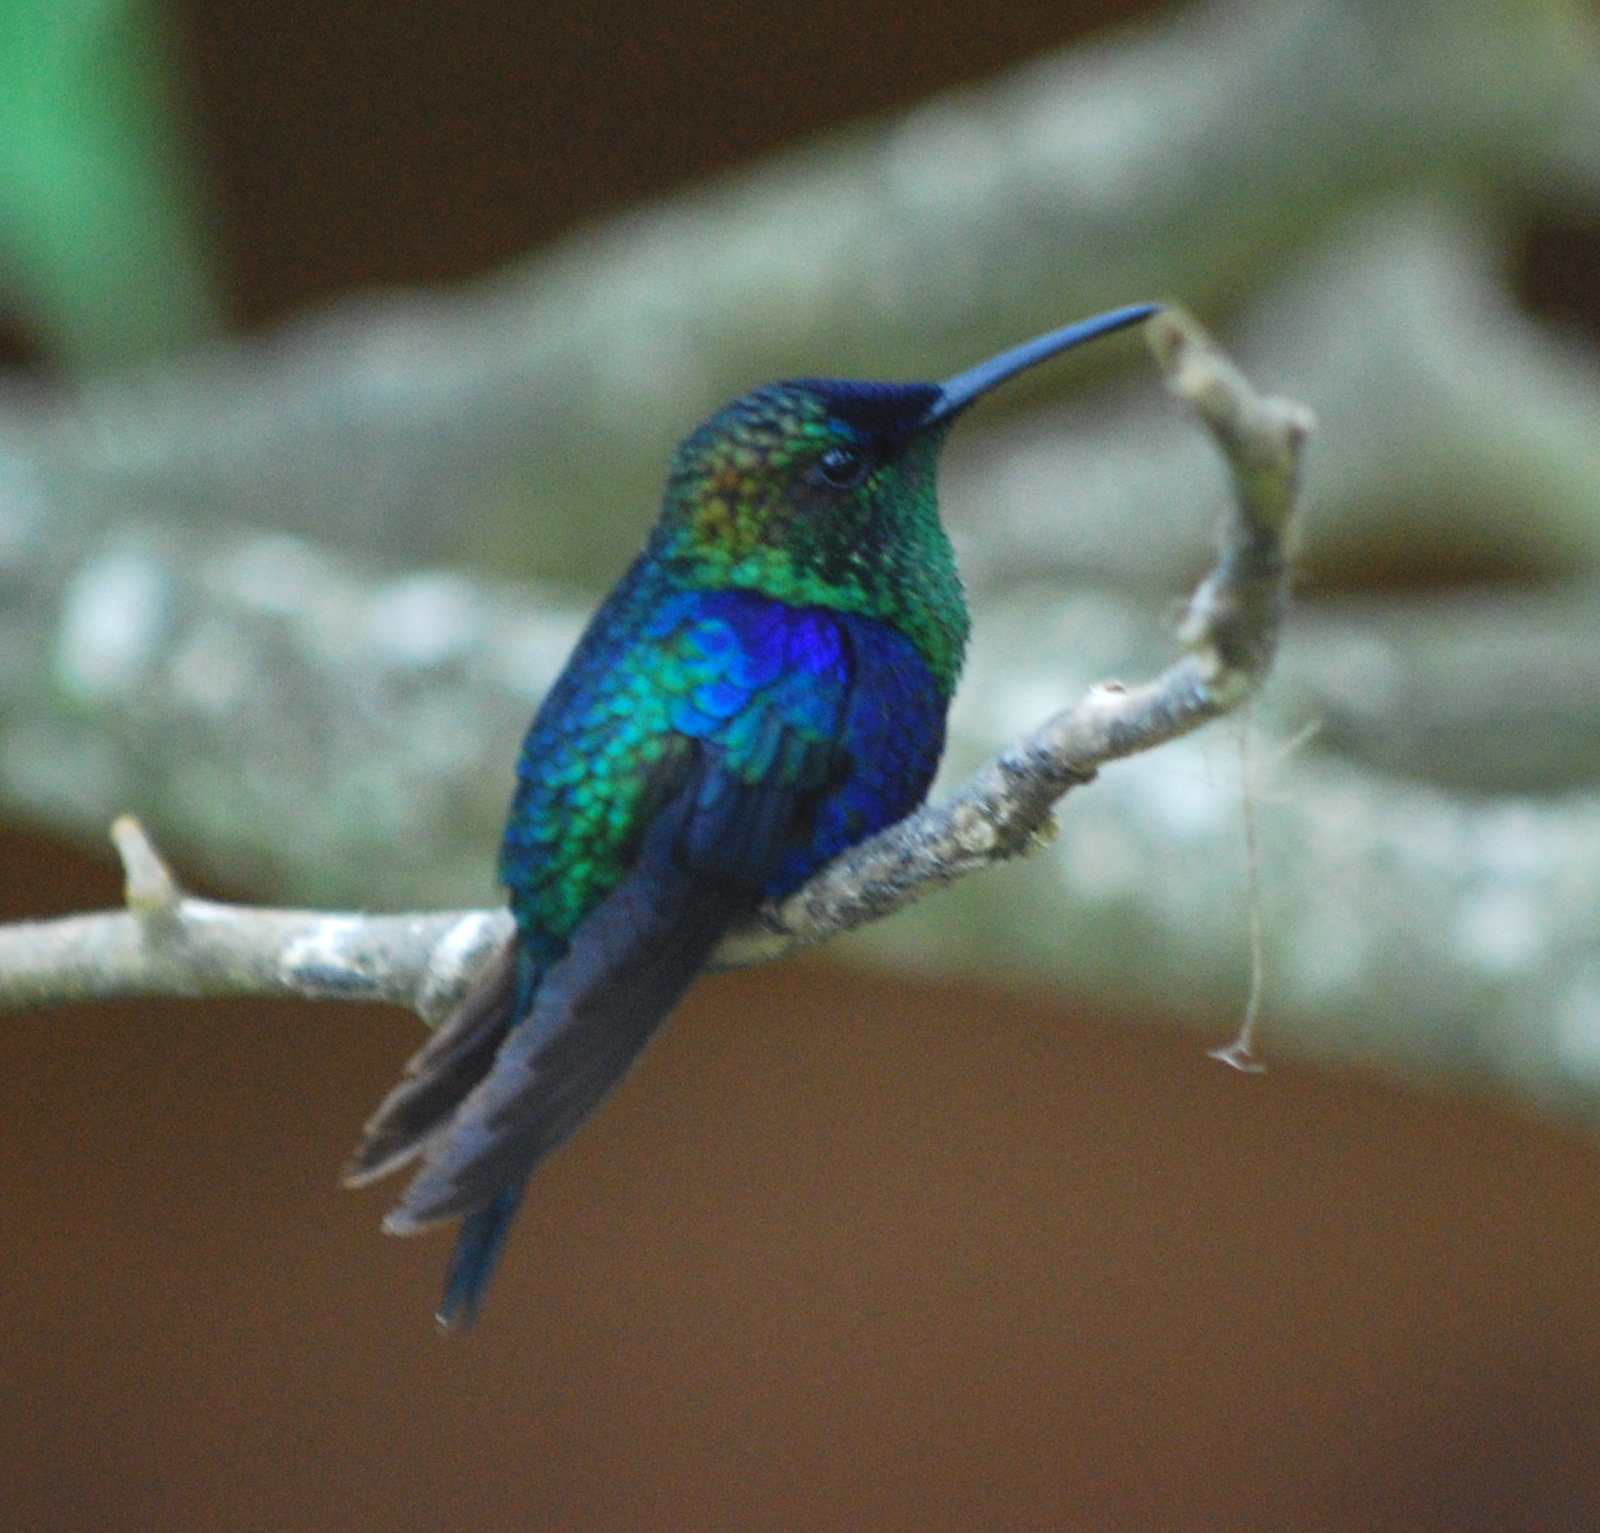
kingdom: Animalia
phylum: Chordata
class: Aves
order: Apodiformes
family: Trochilidae
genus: Thalurania
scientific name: Thalurania colombica
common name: Crowned woodnymph
